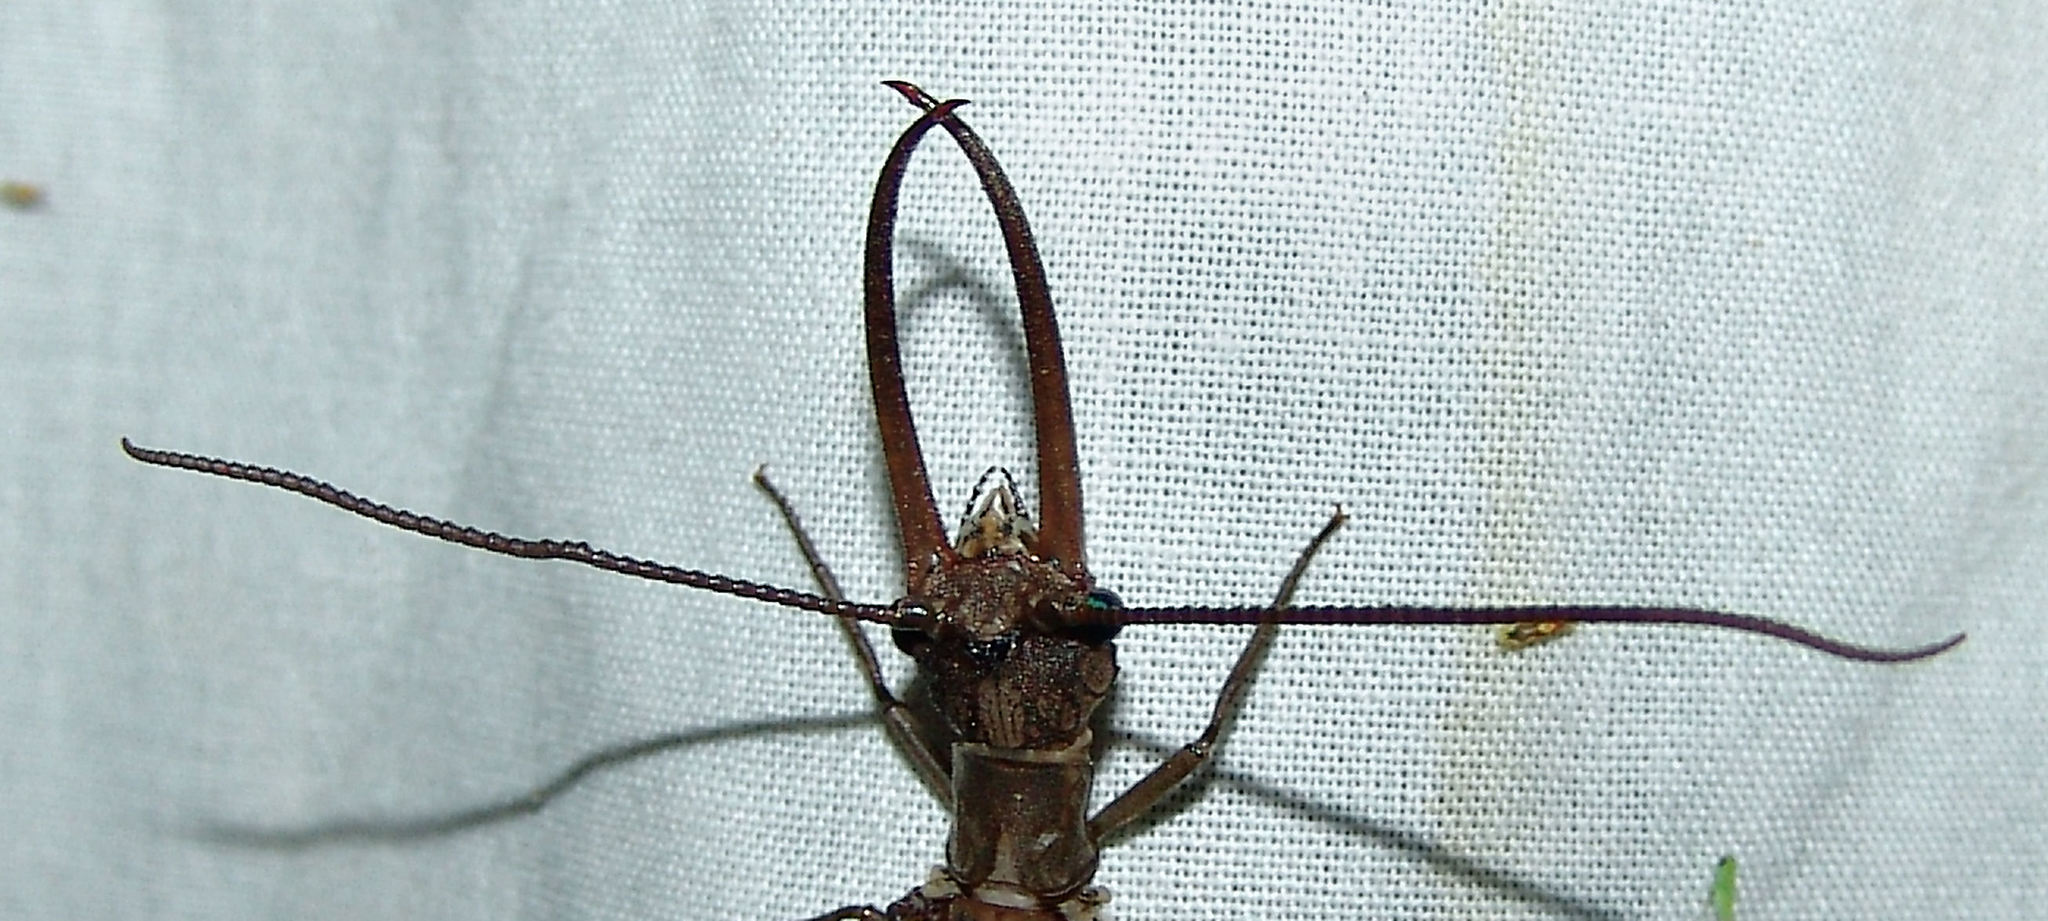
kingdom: Animalia
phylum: Arthropoda
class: Insecta
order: Megaloptera
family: Corydalidae
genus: Corydalus
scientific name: Corydalus cornutus
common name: Dobsonfly
